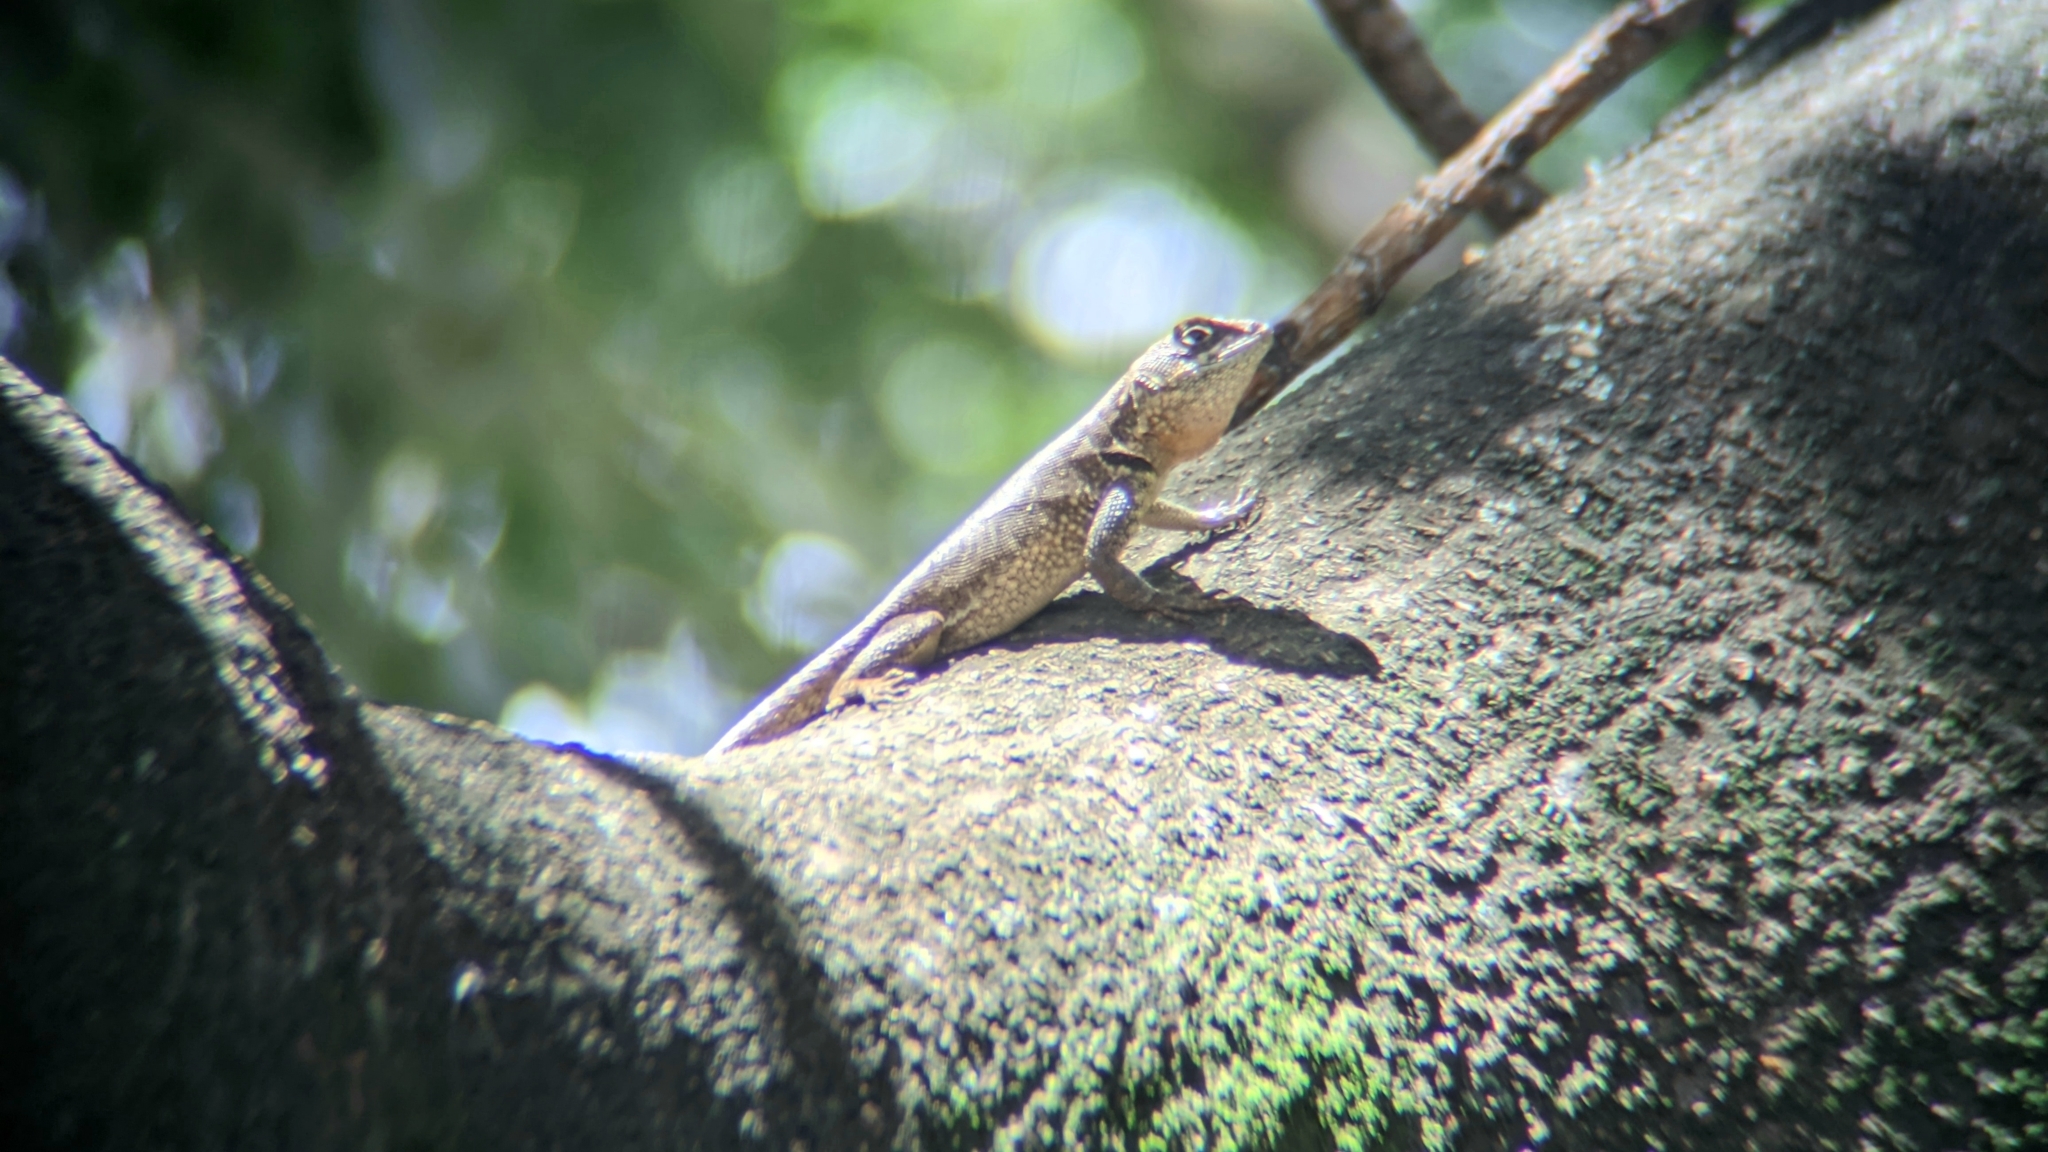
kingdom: Animalia
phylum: Chordata
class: Squamata
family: Tropiduridae
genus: Tropidurus
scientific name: Tropidurus torquatus
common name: Amazon lava lizard
